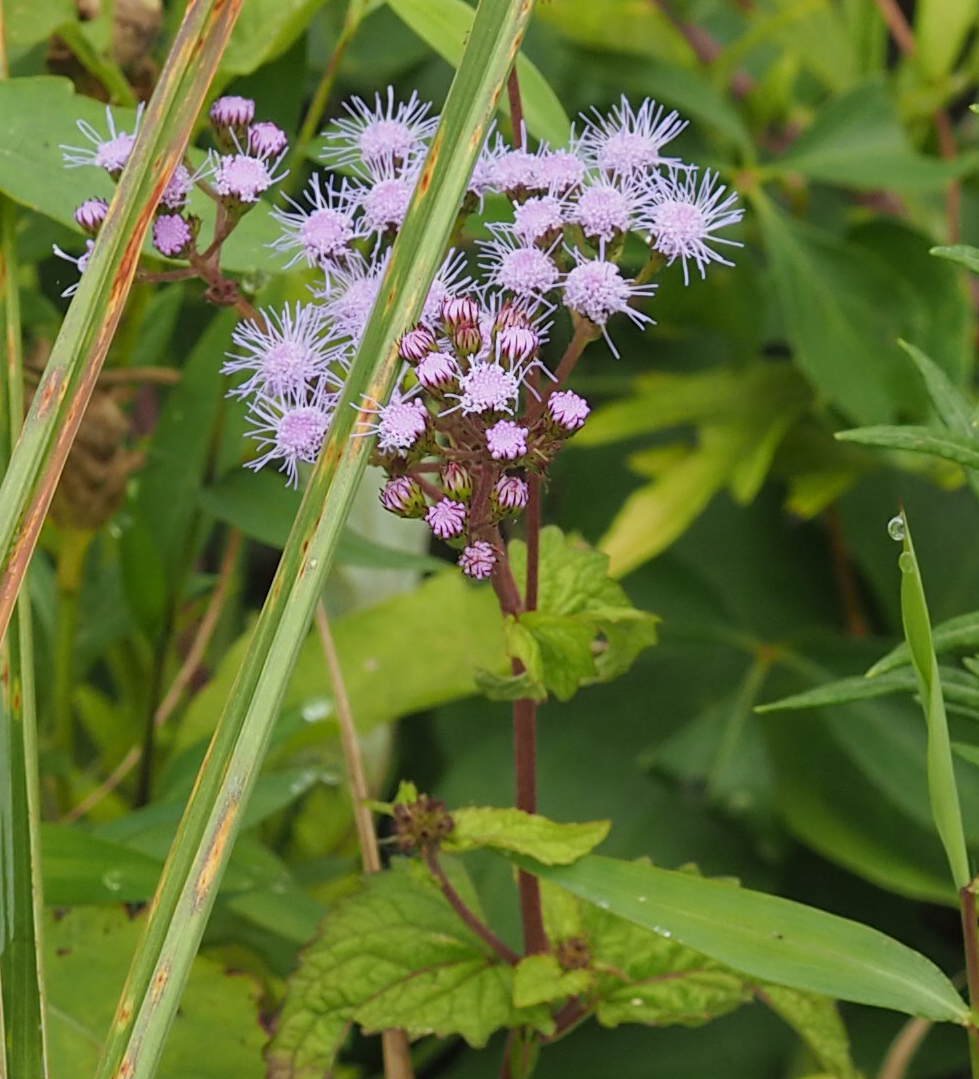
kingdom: Plantae
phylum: Tracheophyta
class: Magnoliopsida
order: Asterales
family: Asteraceae
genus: Conoclinium
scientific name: Conoclinium coelestinum
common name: Blue mistflower
